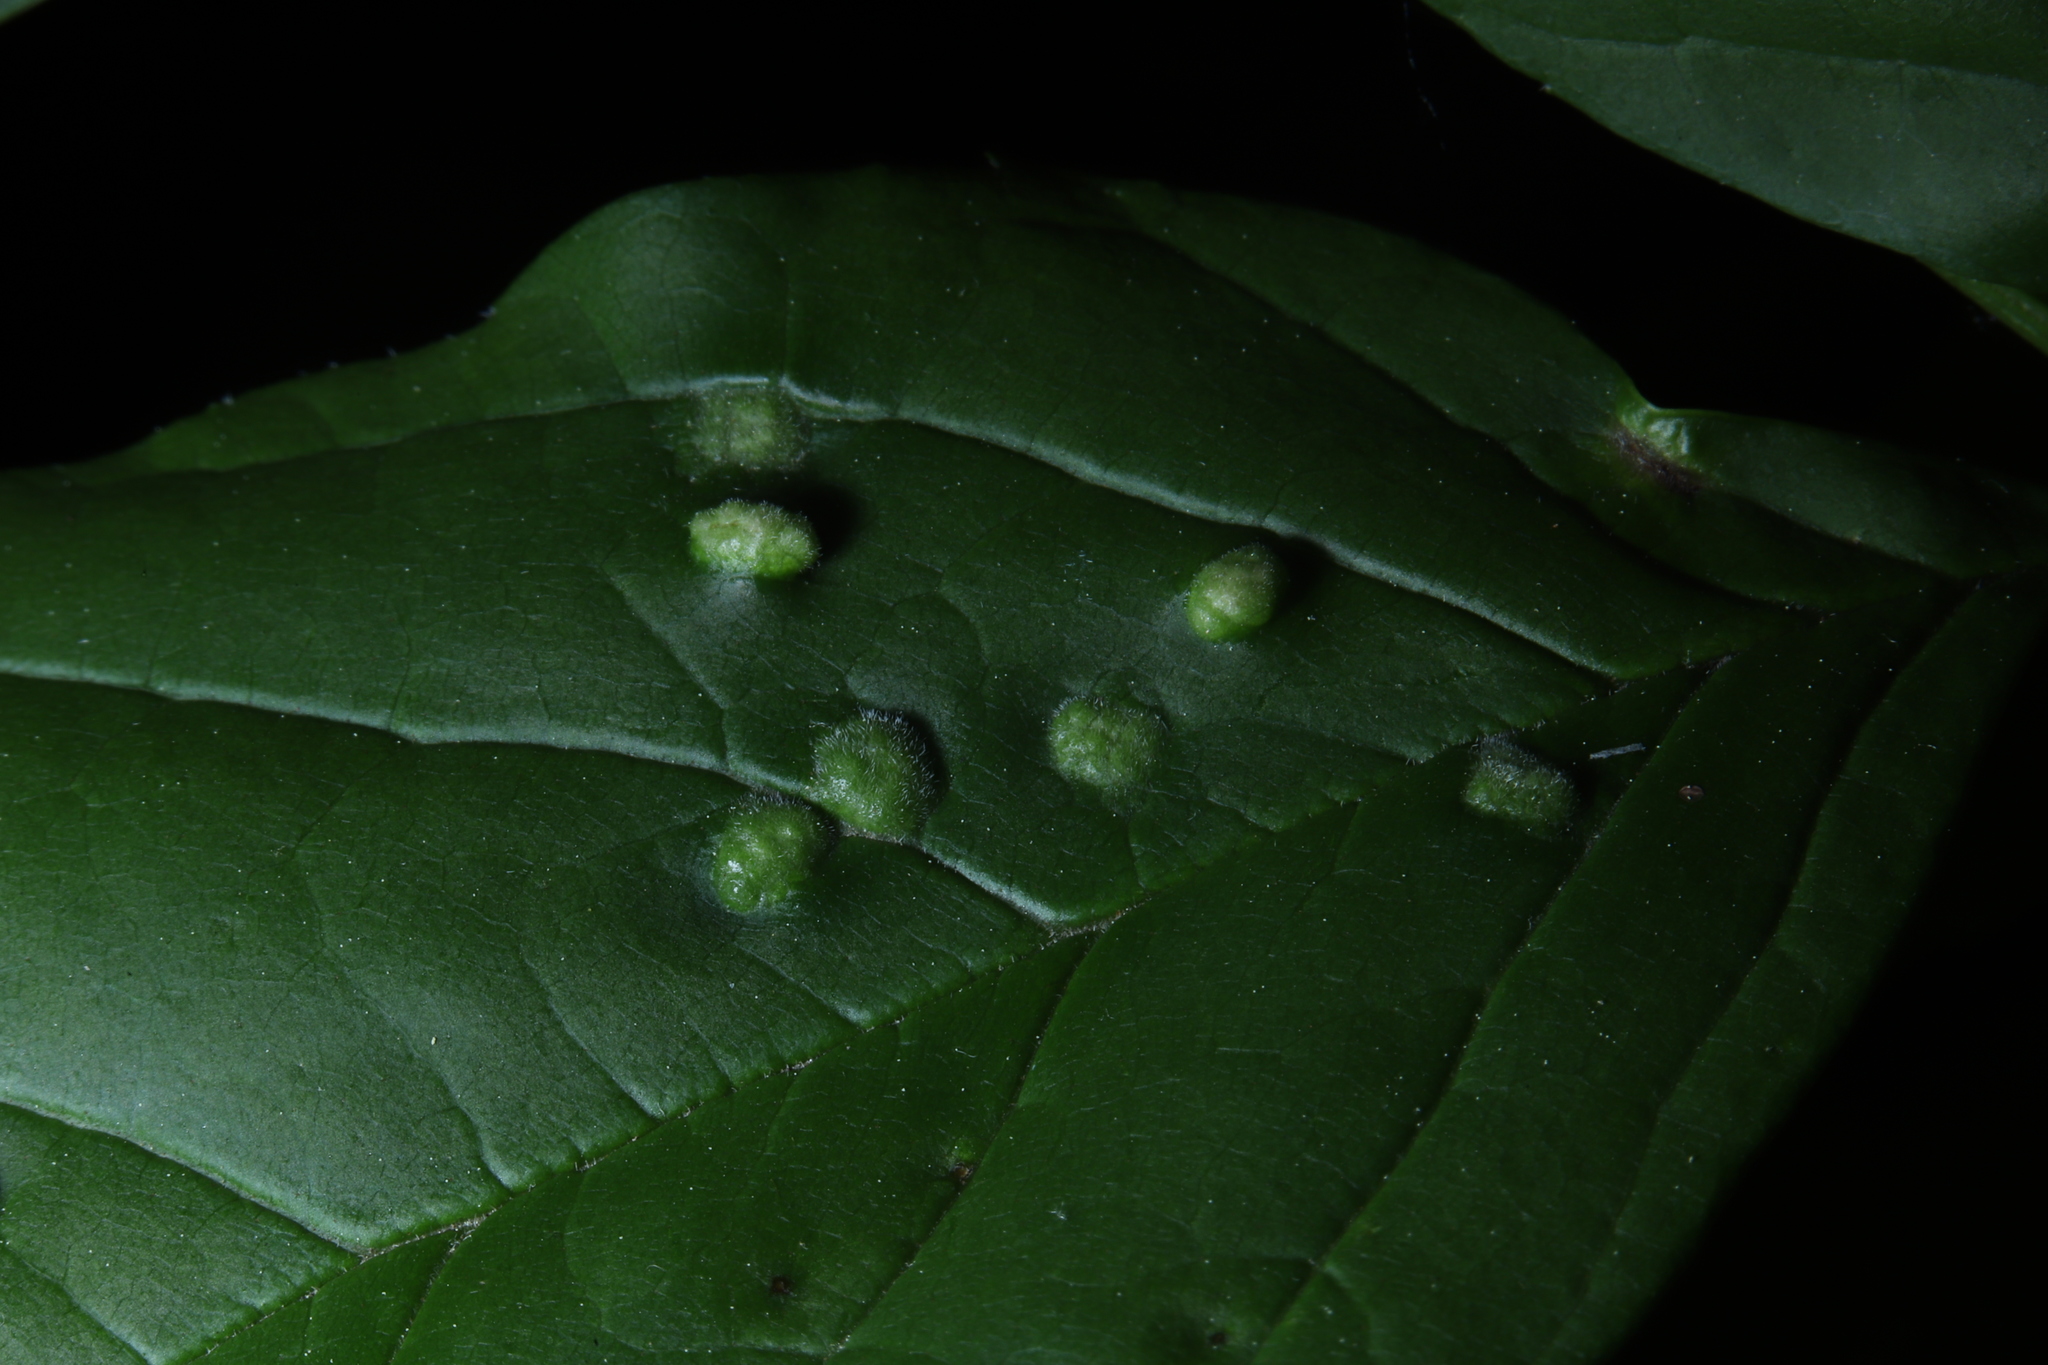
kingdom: Animalia
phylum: Arthropoda
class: Arachnida
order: Trombidiformes
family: Eriophyidae
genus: Aceria
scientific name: Aceria fraxinicola
